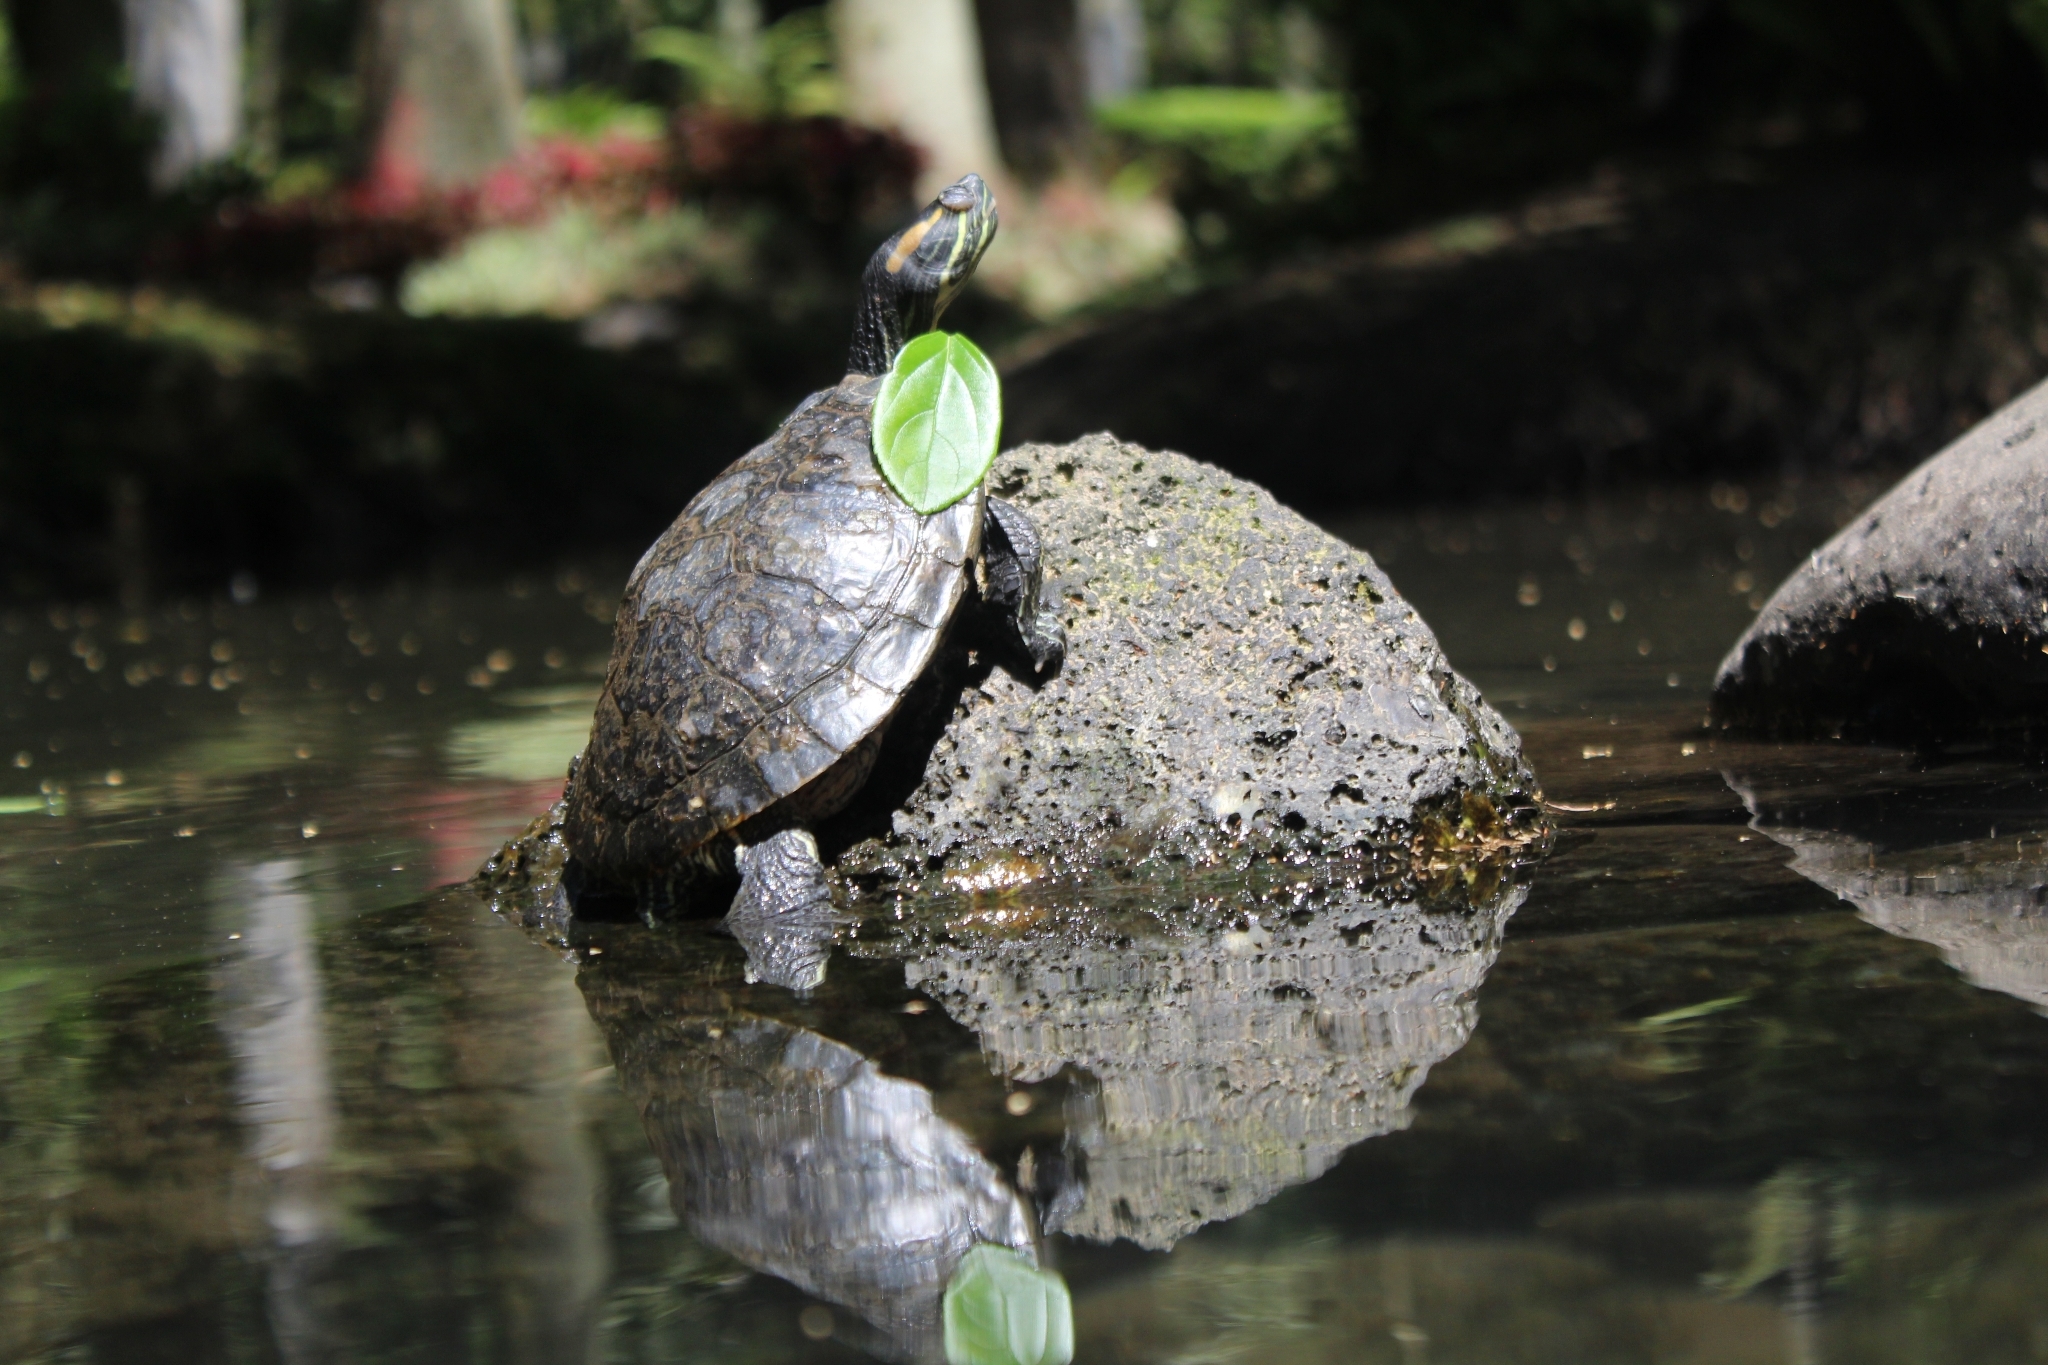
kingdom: Animalia
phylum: Chordata
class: Testudines
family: Emydidae
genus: Trachemys
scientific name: Trachemys venusta
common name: Mesoamerican slider
